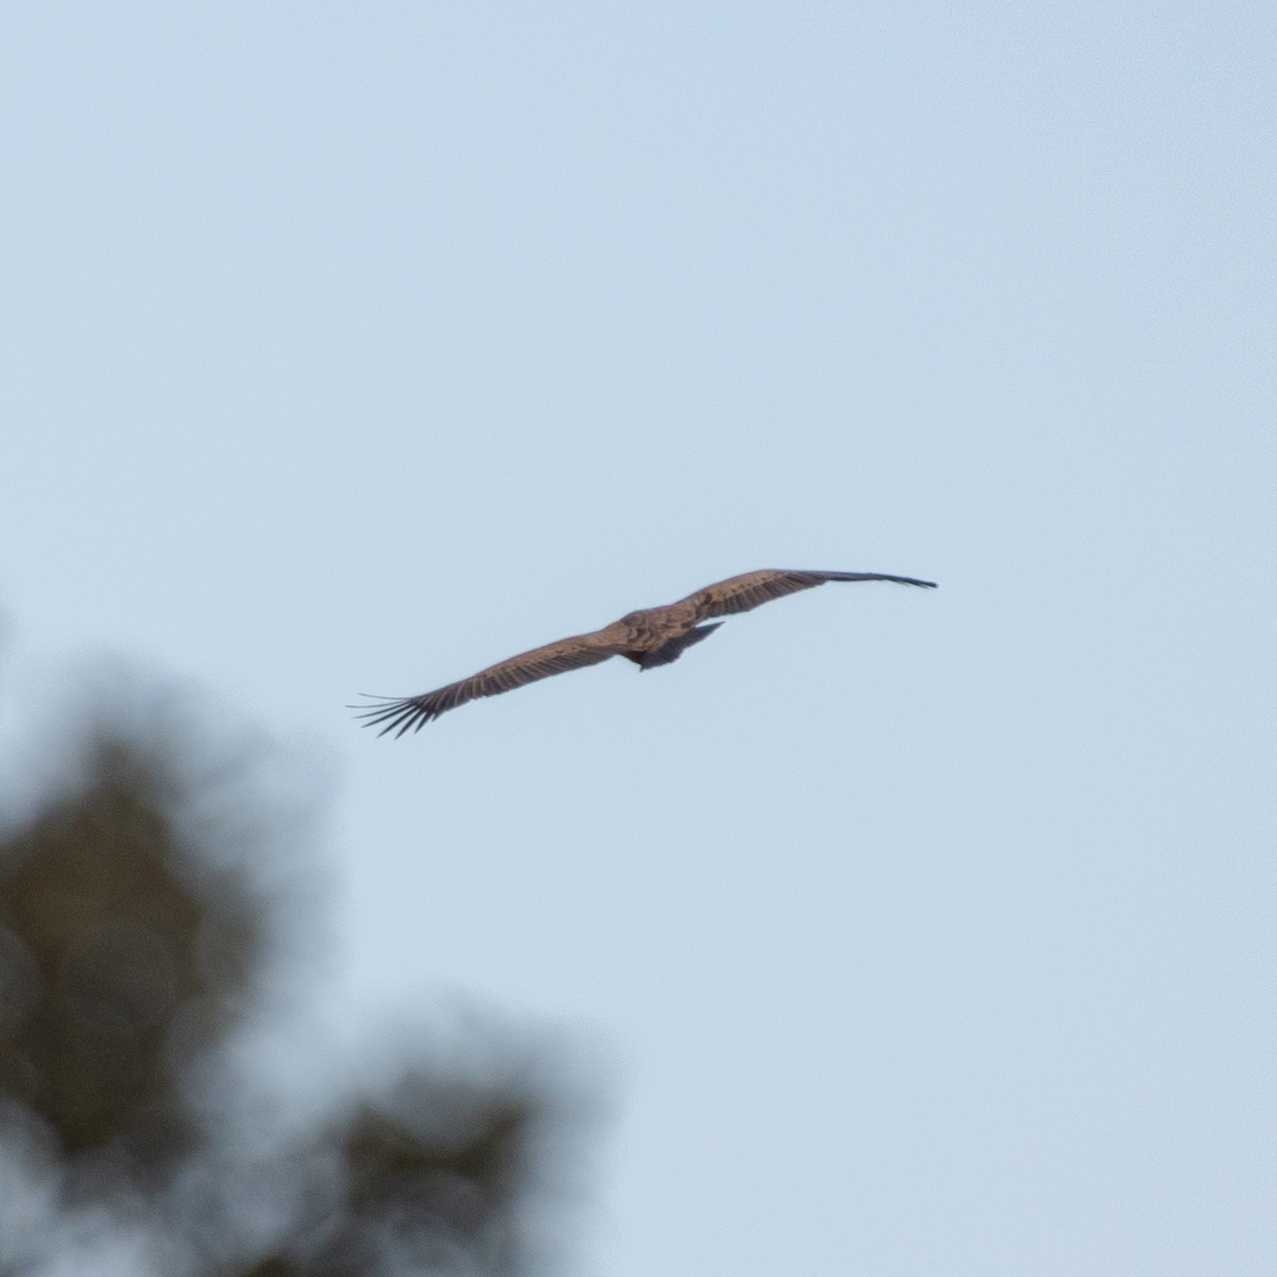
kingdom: Animalia
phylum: Chordata
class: Aves
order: Accipitriformes
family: Accipitridae
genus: Gyps
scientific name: Gyps fulvus
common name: Griffon vulture
